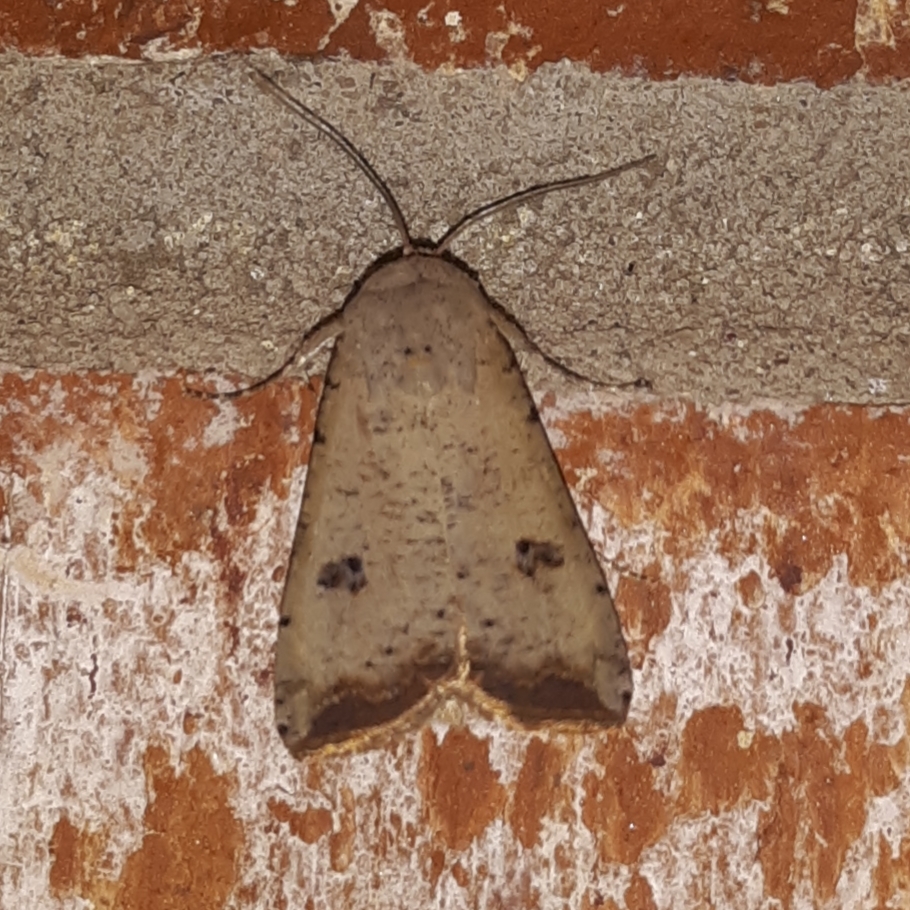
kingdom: Animalia
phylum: Arthropoda
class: Insecta
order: Lepidoptera
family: Noctuidae
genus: Anicla
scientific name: Anicla infecta
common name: Green cutworm
